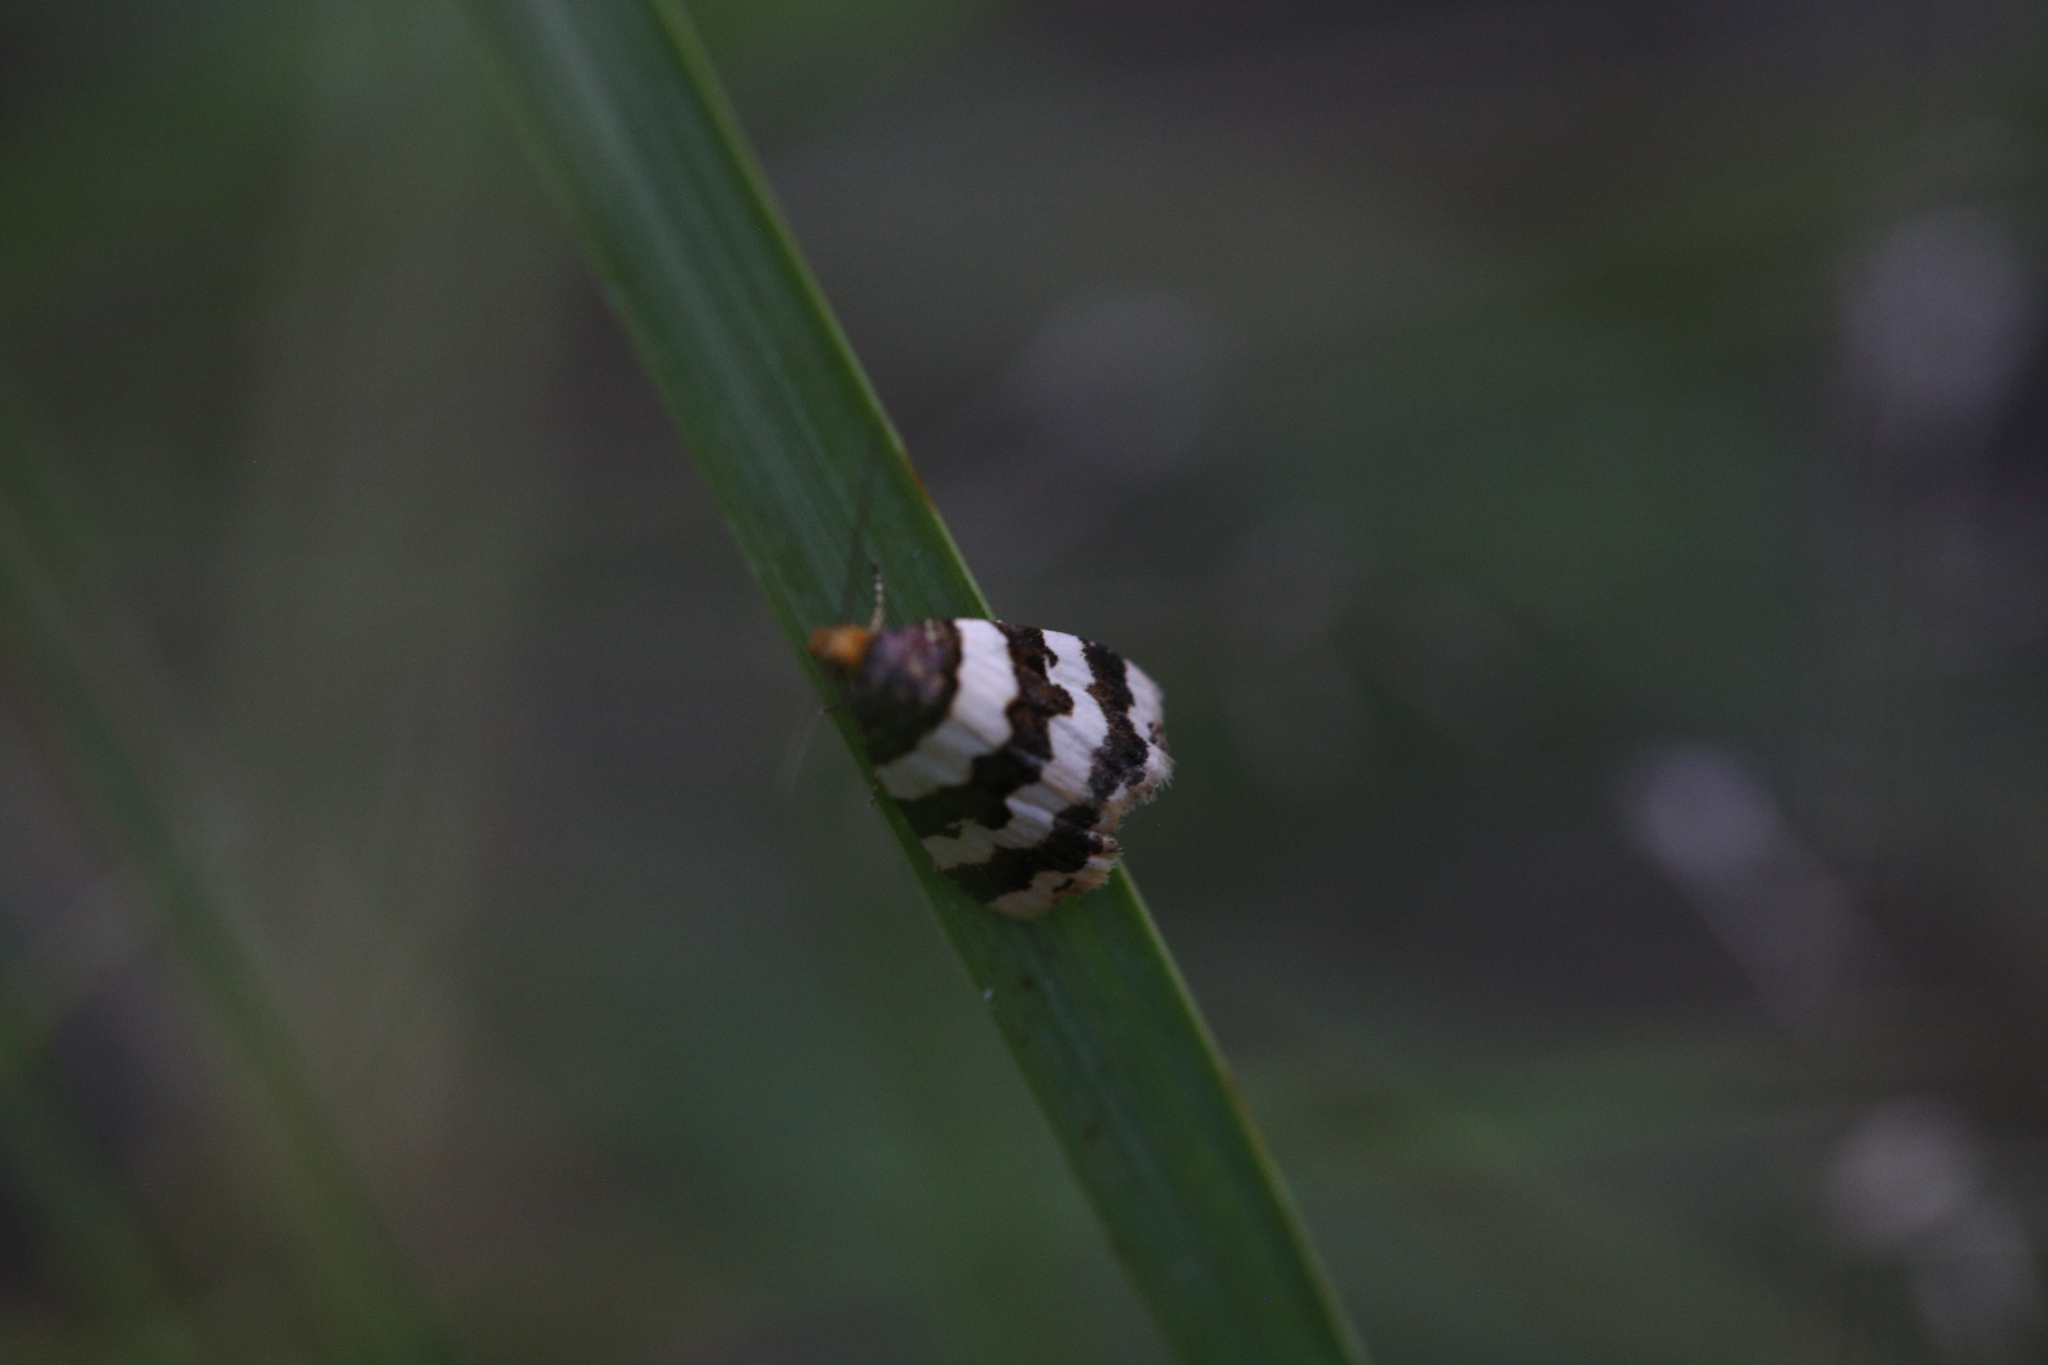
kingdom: Animalia
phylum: Arthropoda
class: Insecta
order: Lepidoptera
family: Noctuidae
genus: Eulocastra
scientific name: Eulocastra fasciata
